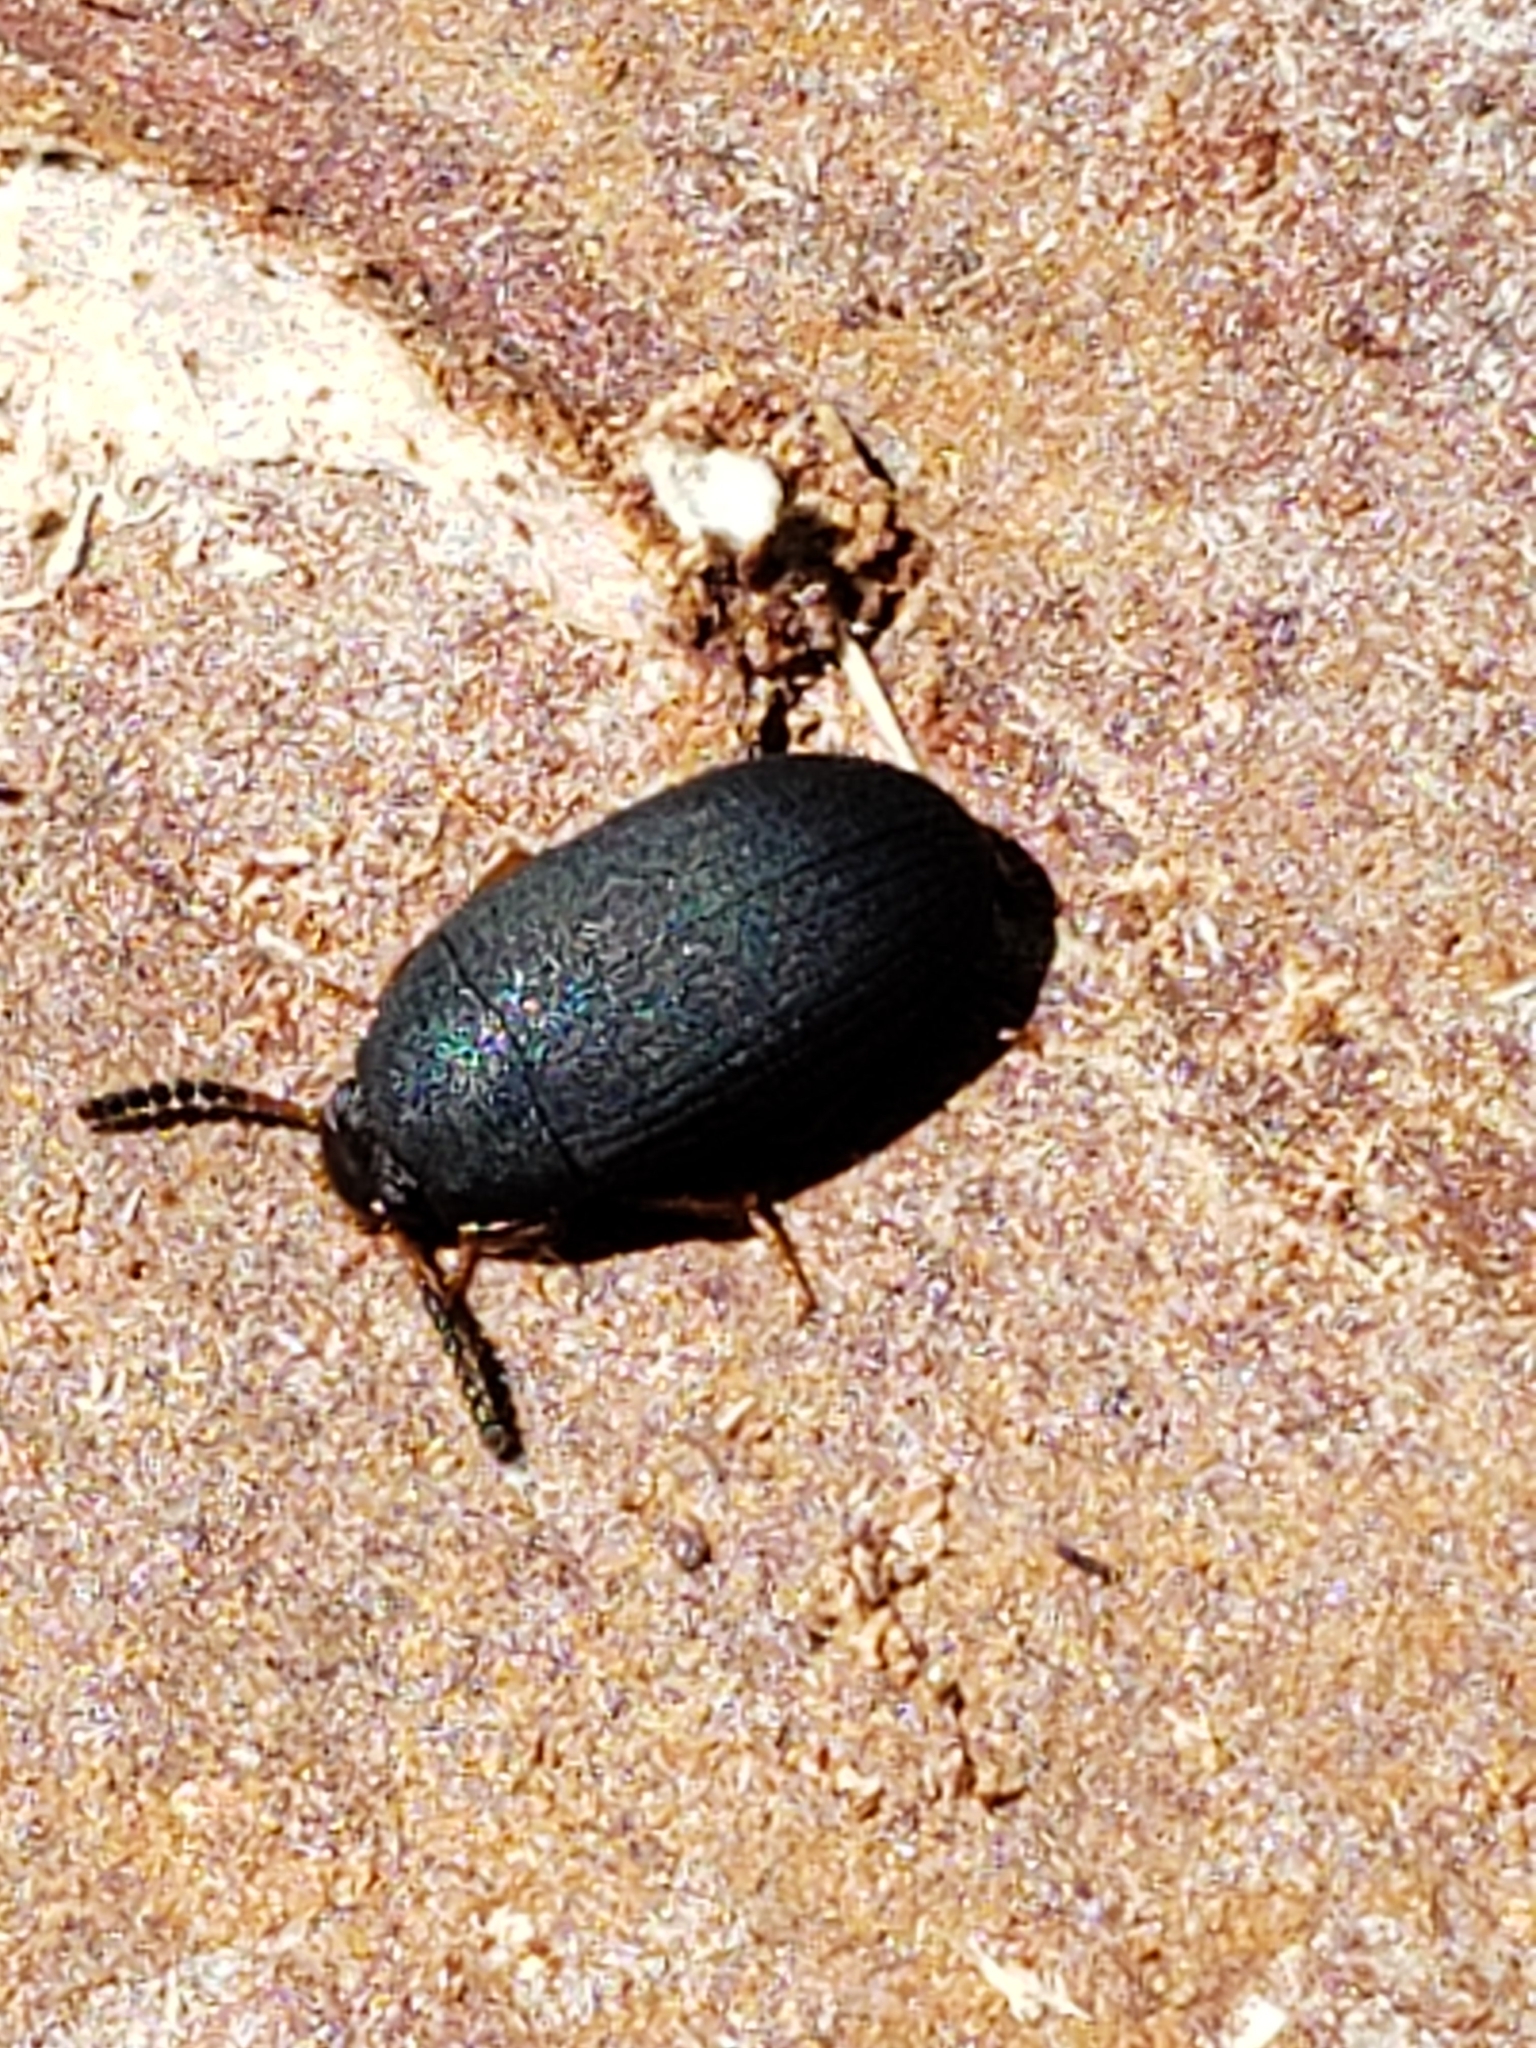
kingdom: Animalia
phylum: Arthropoda
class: Insecta
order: Coleoptera
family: Tenebrionidae
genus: Platydema
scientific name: Platydema flavipes
